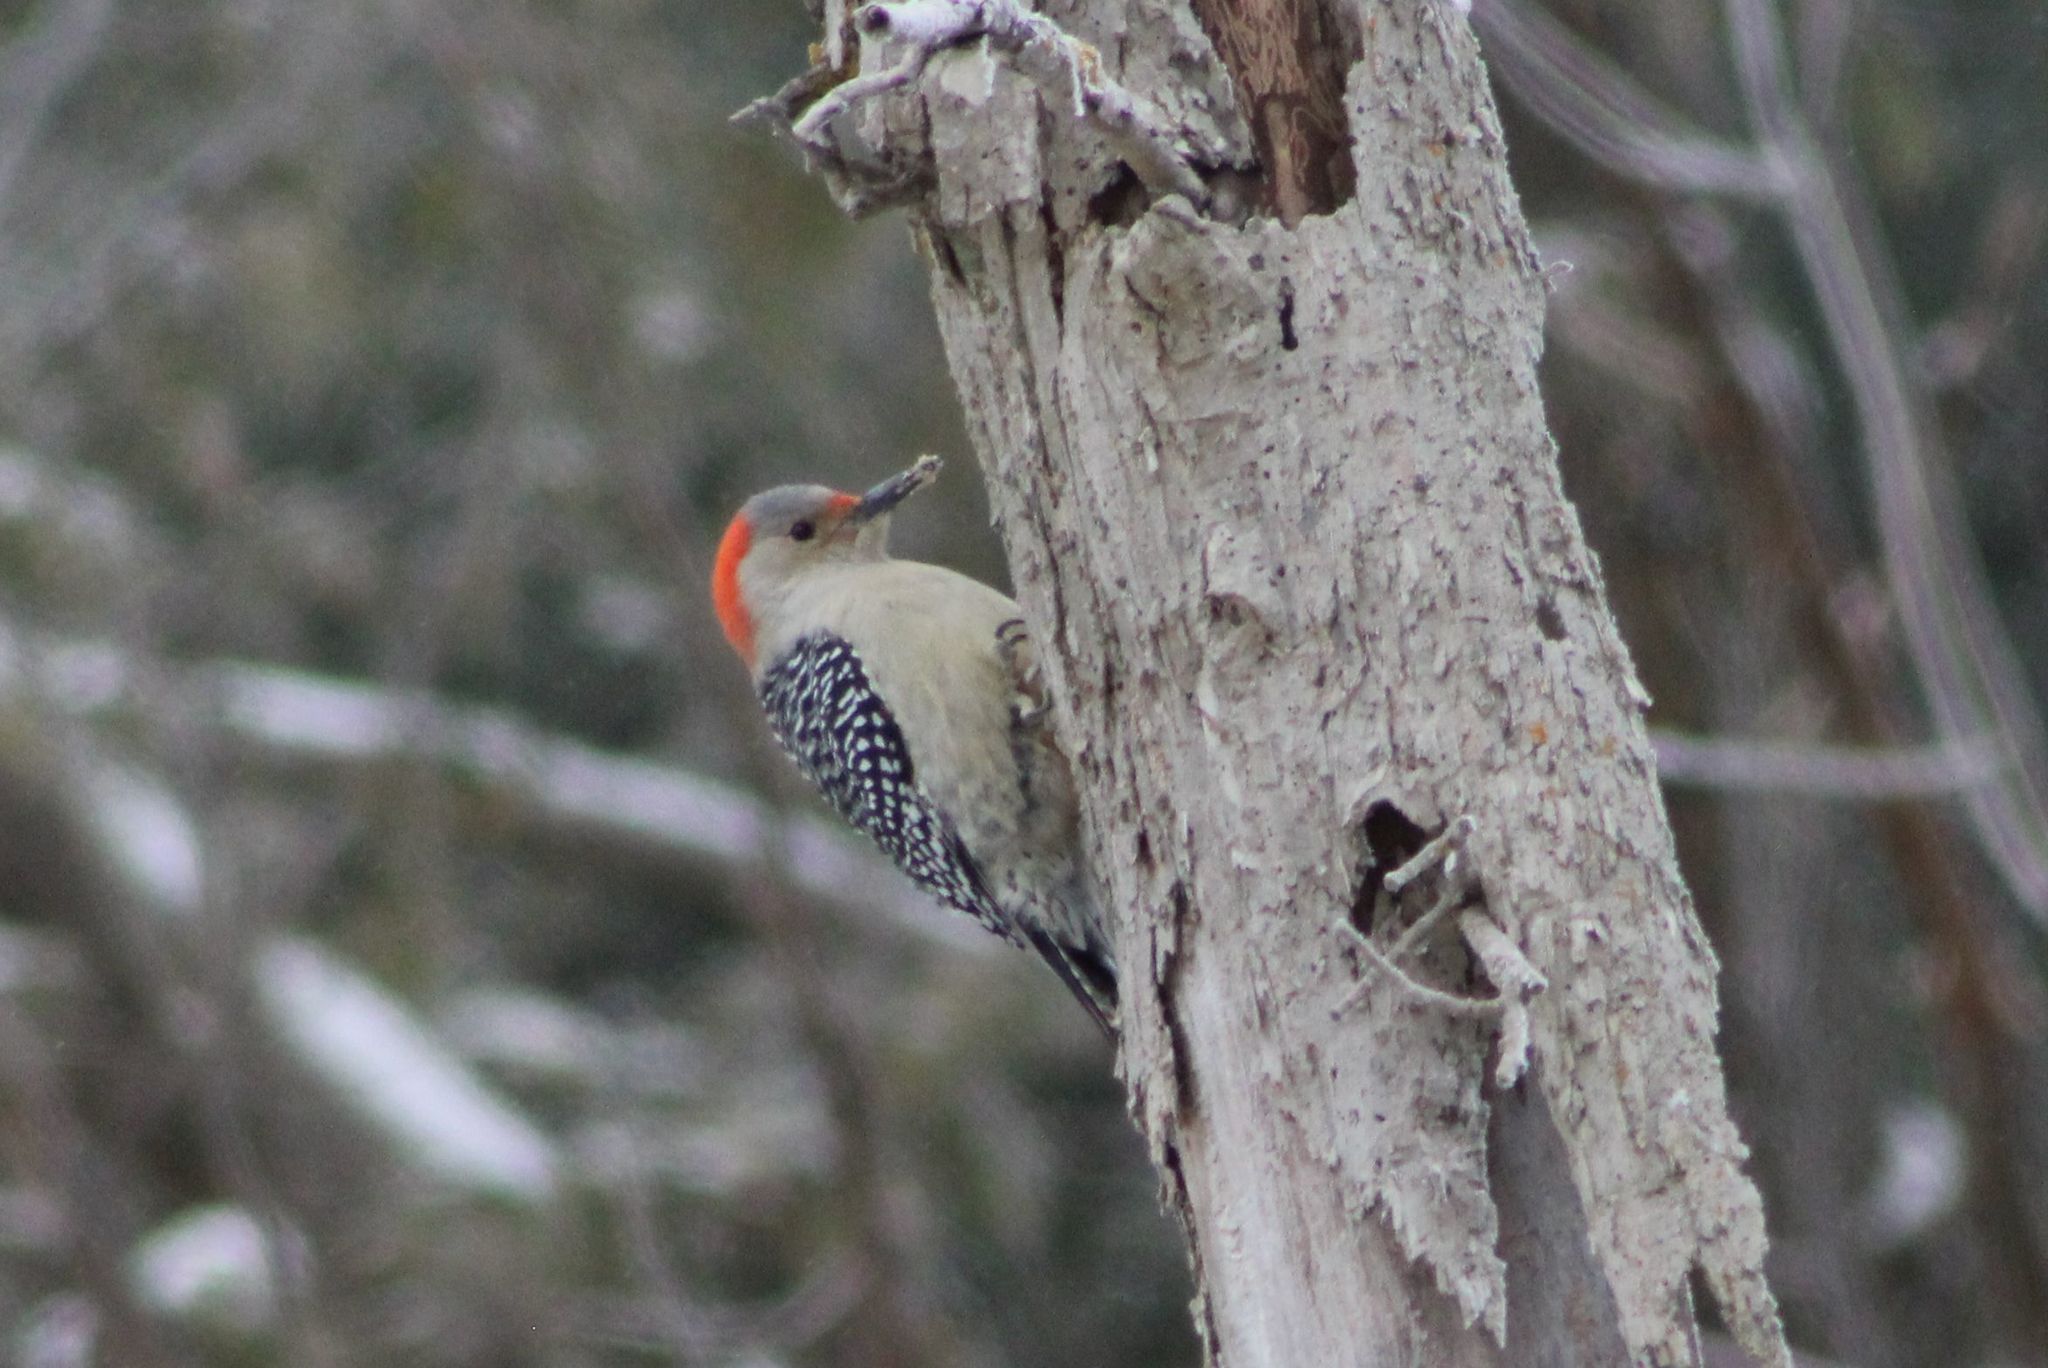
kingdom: Animalia
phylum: Chordata
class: Aves
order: Piciformes
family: Picidae
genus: Melanerpes
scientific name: Melanerpes carolinus
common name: Red-bellied woodpecker
